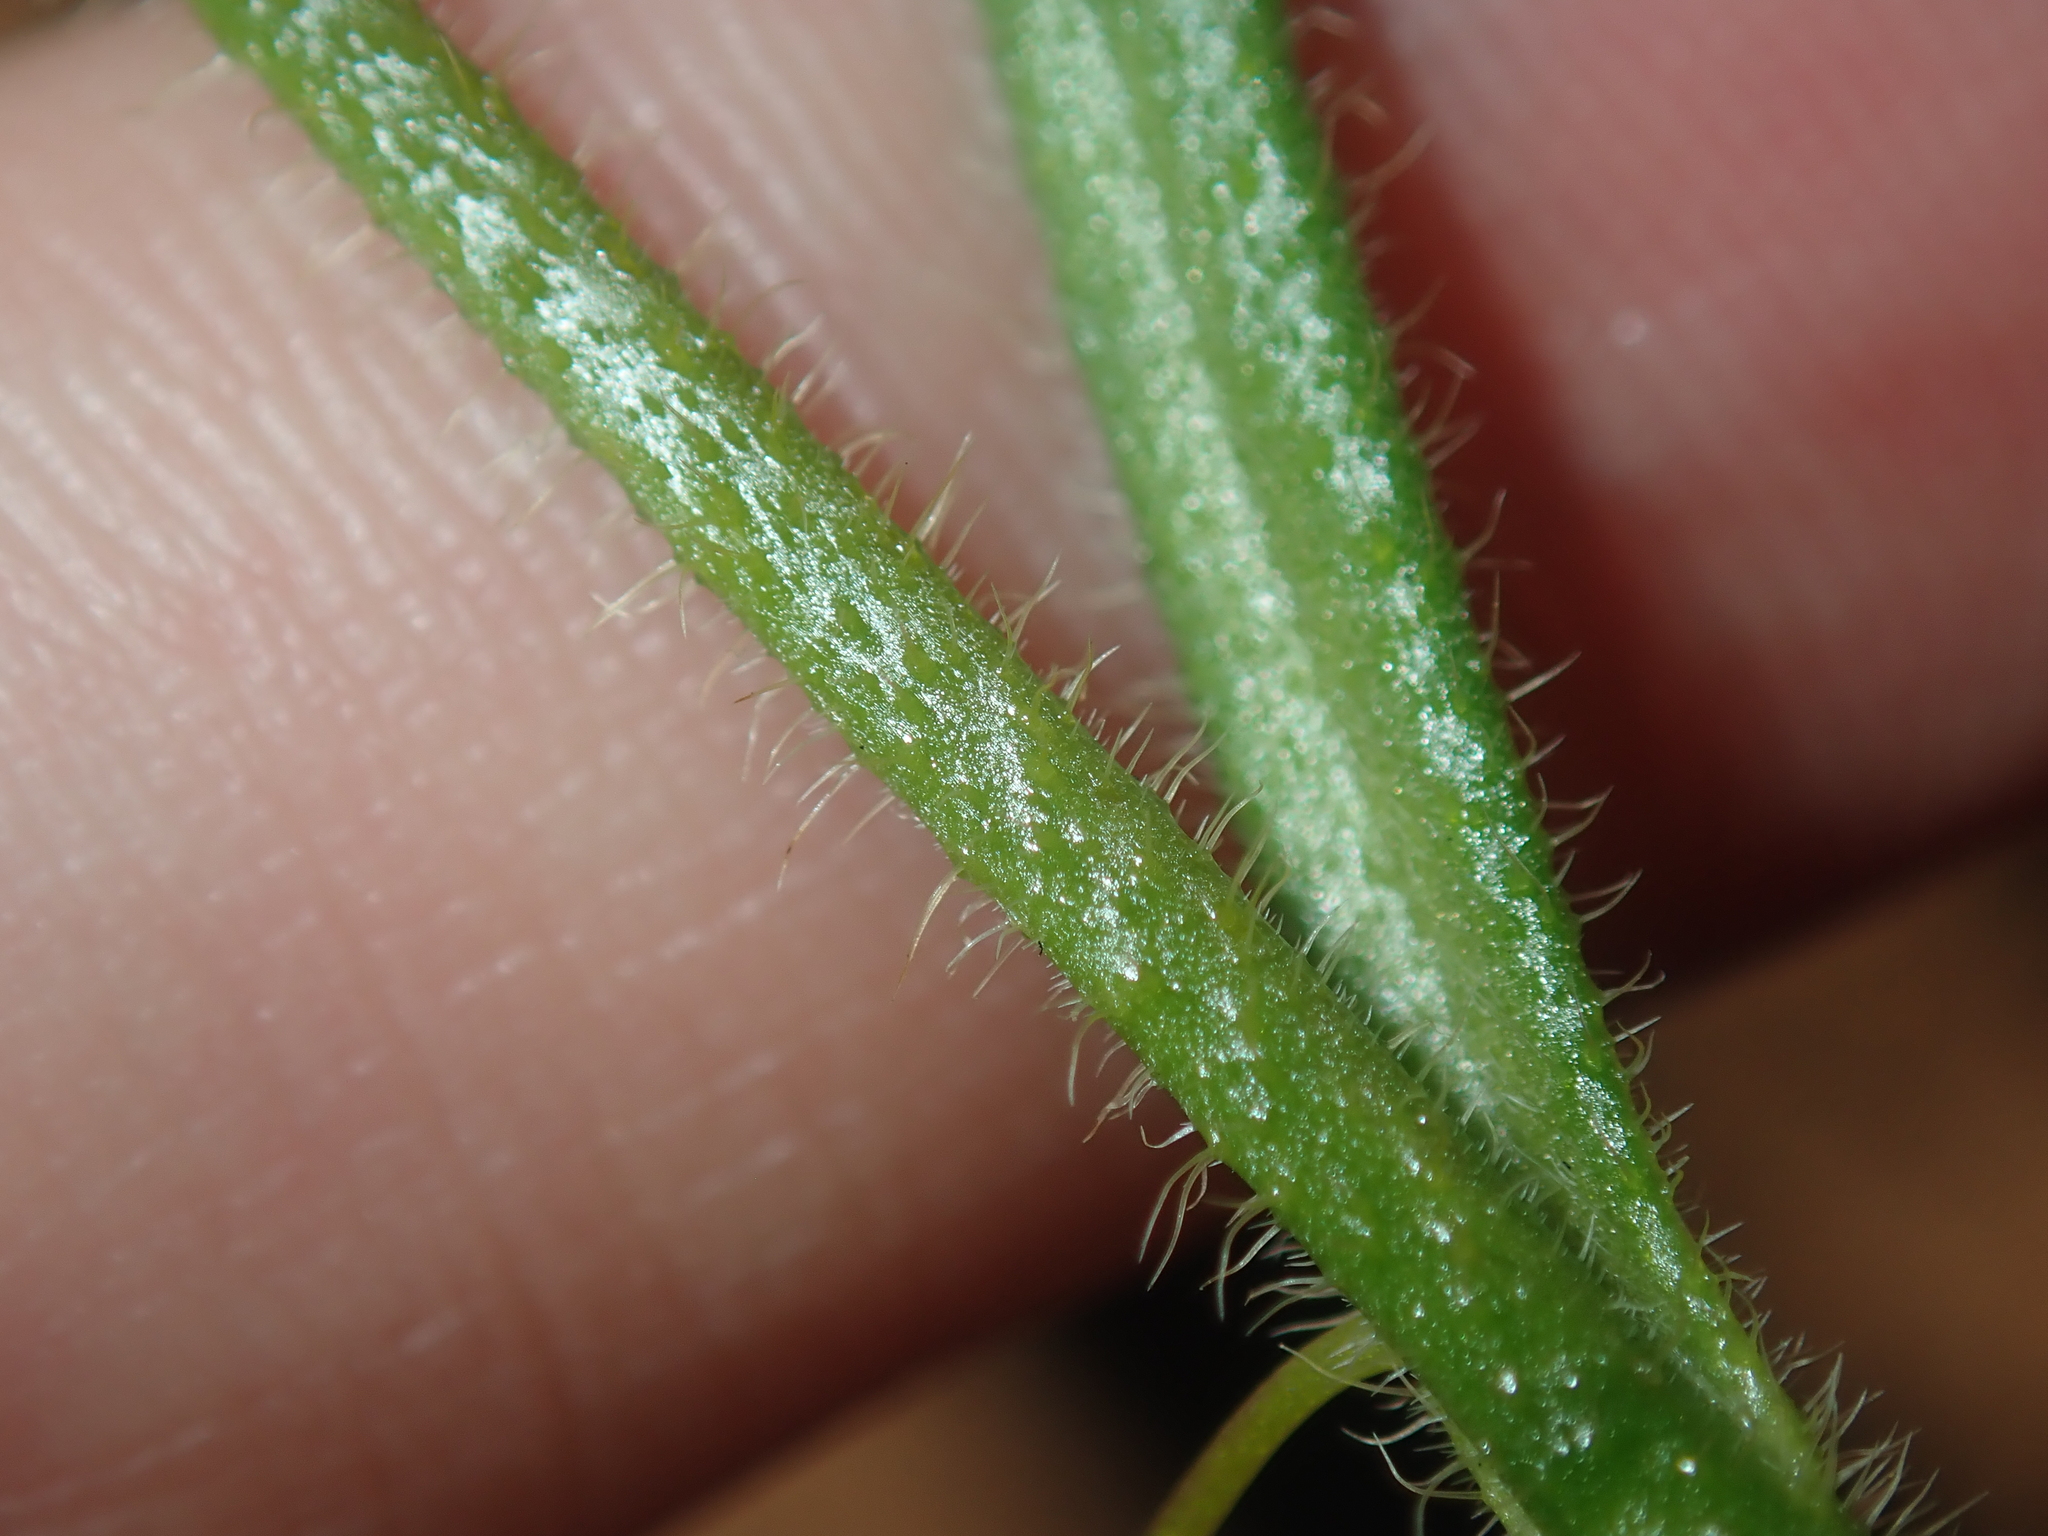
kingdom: Plantae
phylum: Tracheophyta
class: Magnoliopsida
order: Asterales
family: Goodeniaceae
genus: Scaevola
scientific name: Scaevola phlebopetala
